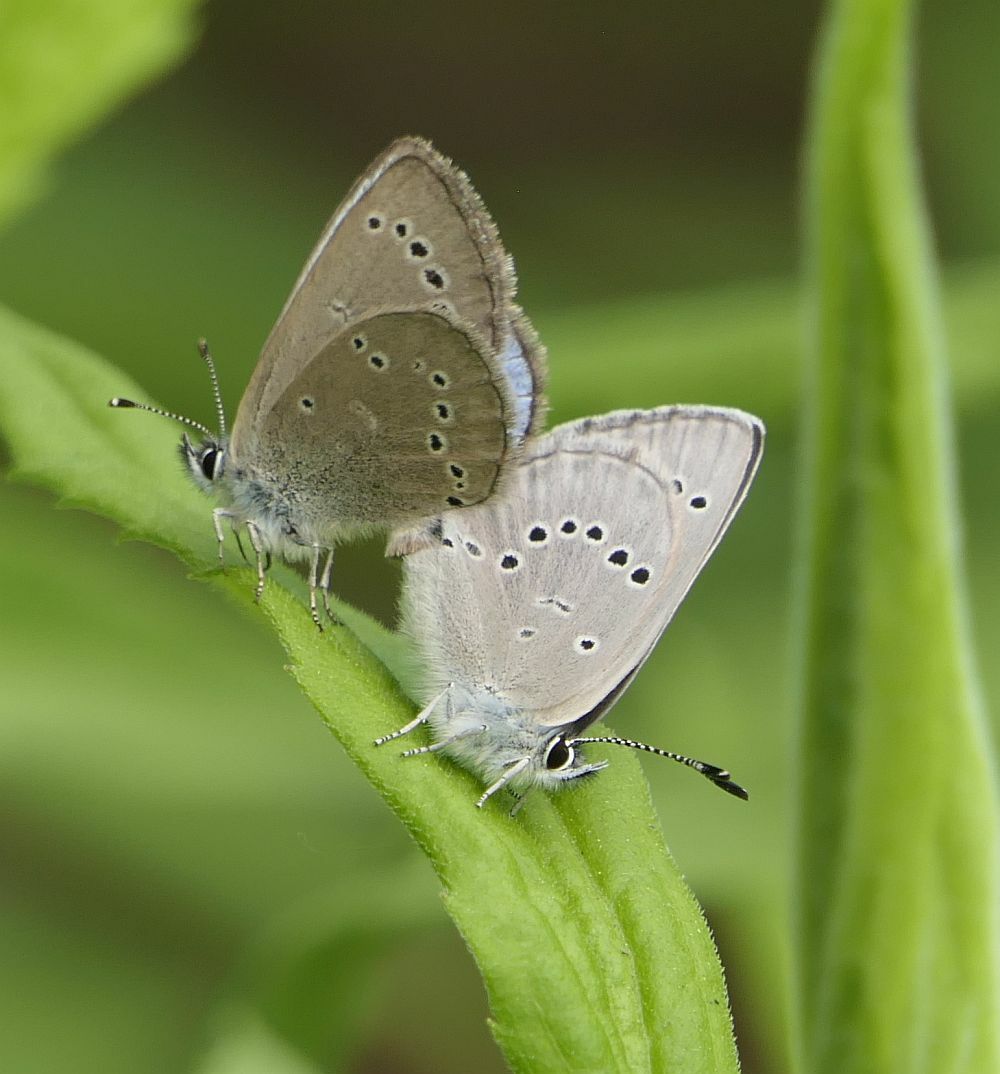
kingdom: Animalia
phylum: Arthropoda
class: Insecta
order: Lepidoptera
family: Lycaenidae
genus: Glaucopsyche
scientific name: Glaucopsyche lygdamus
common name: Silvery blue
